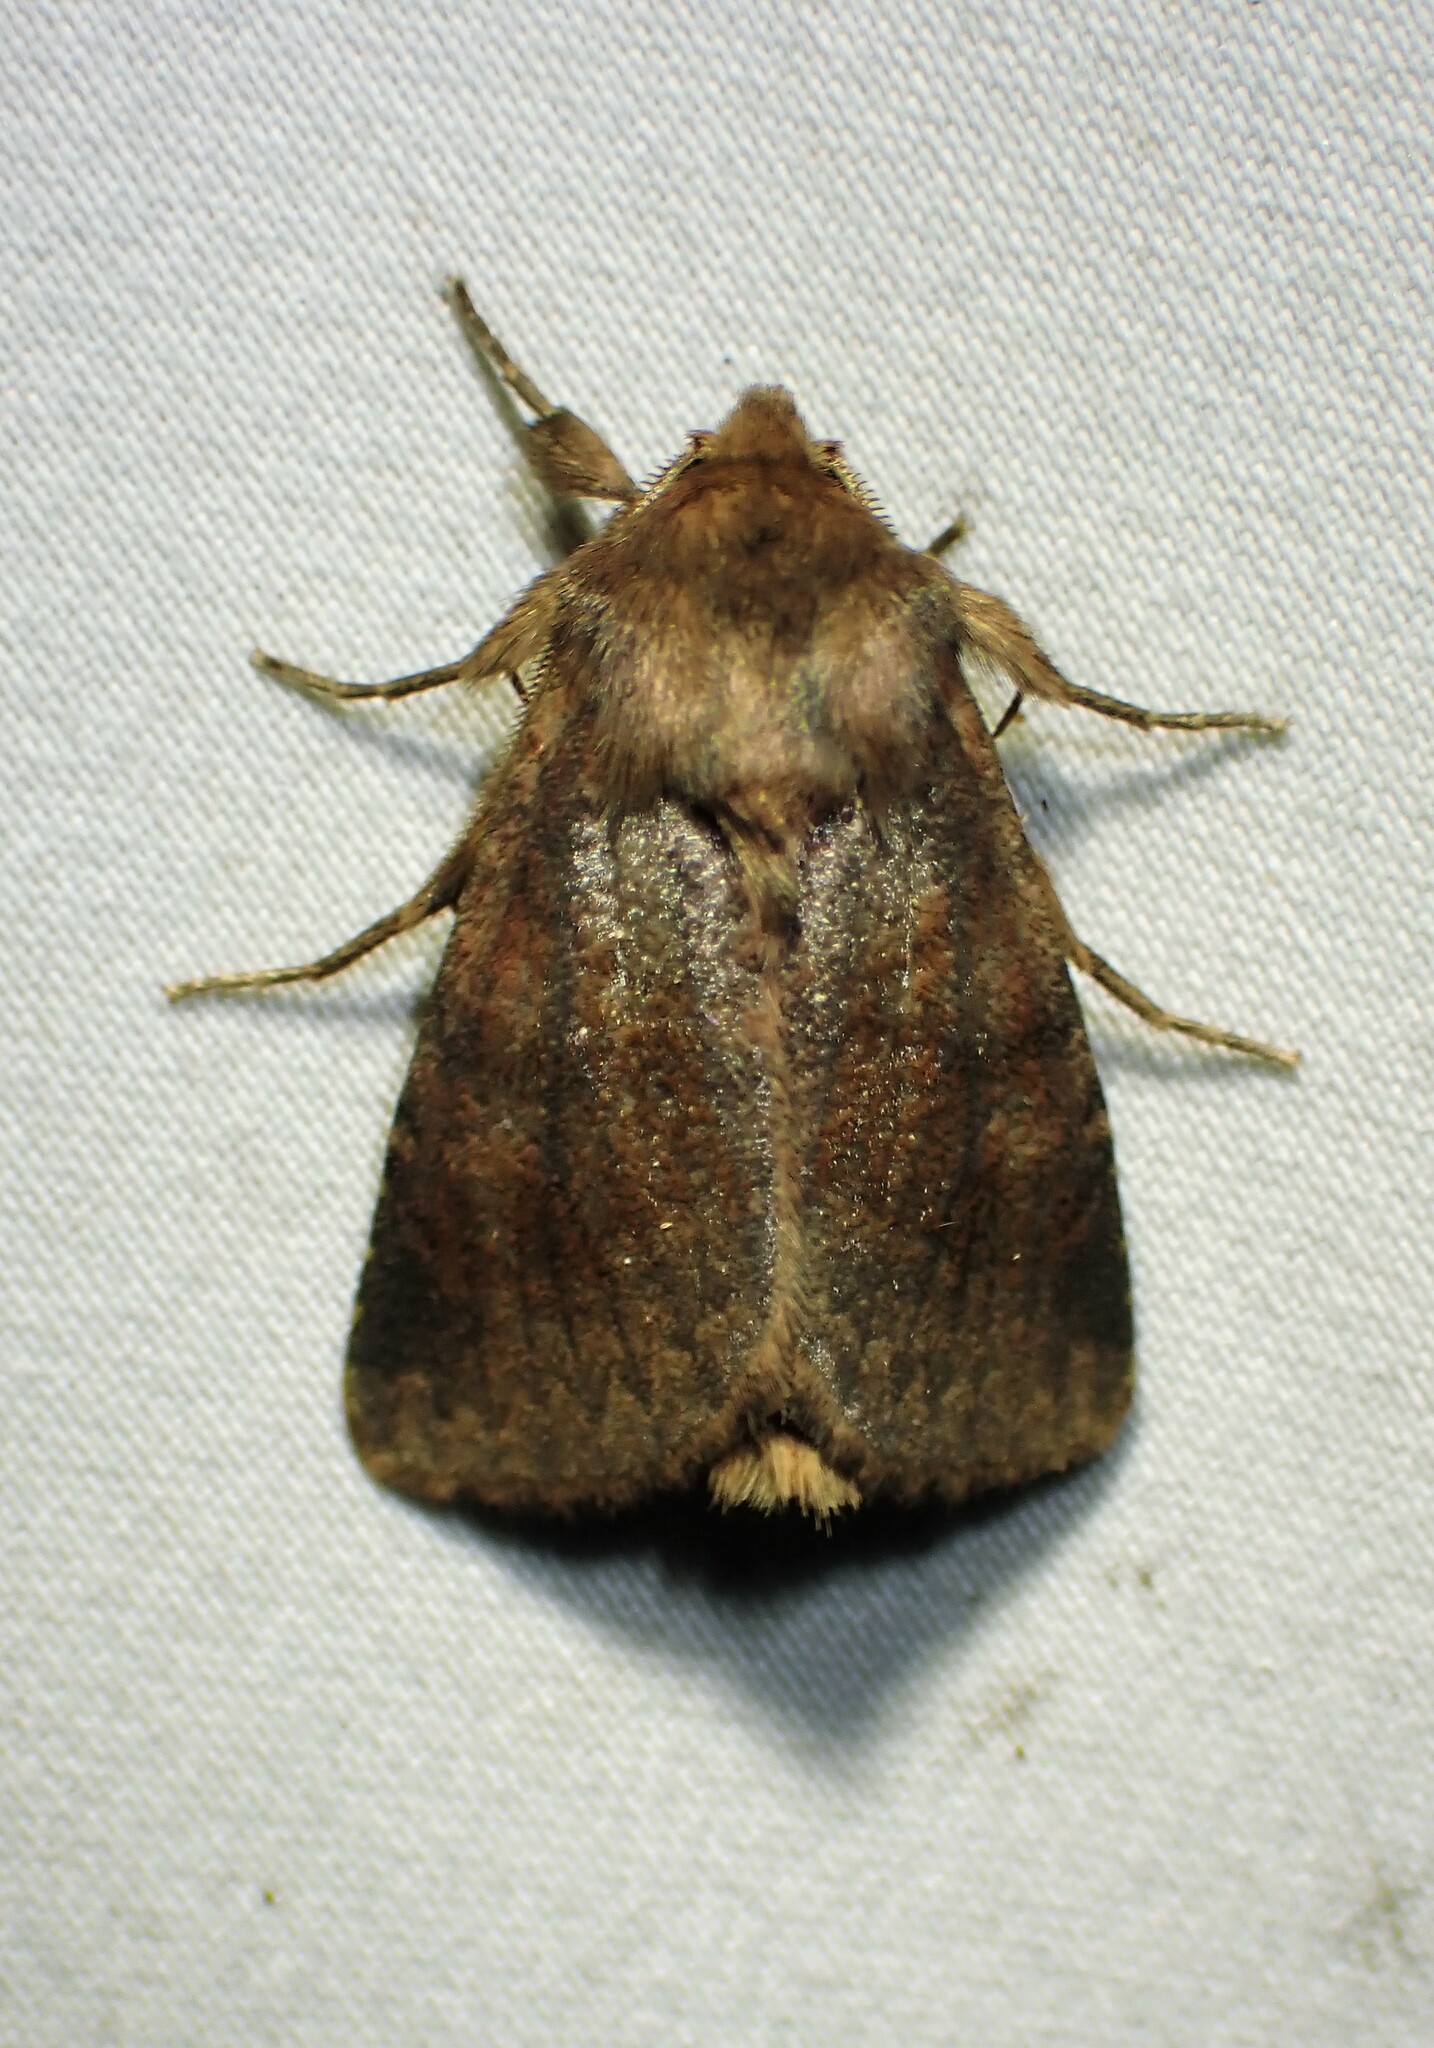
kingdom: Animalia
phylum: Arthropoda
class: Insecta
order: Lepidoptera
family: Noctuidae
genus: Nephelodes
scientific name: Nephelodes minians
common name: Bronzed cutworm
